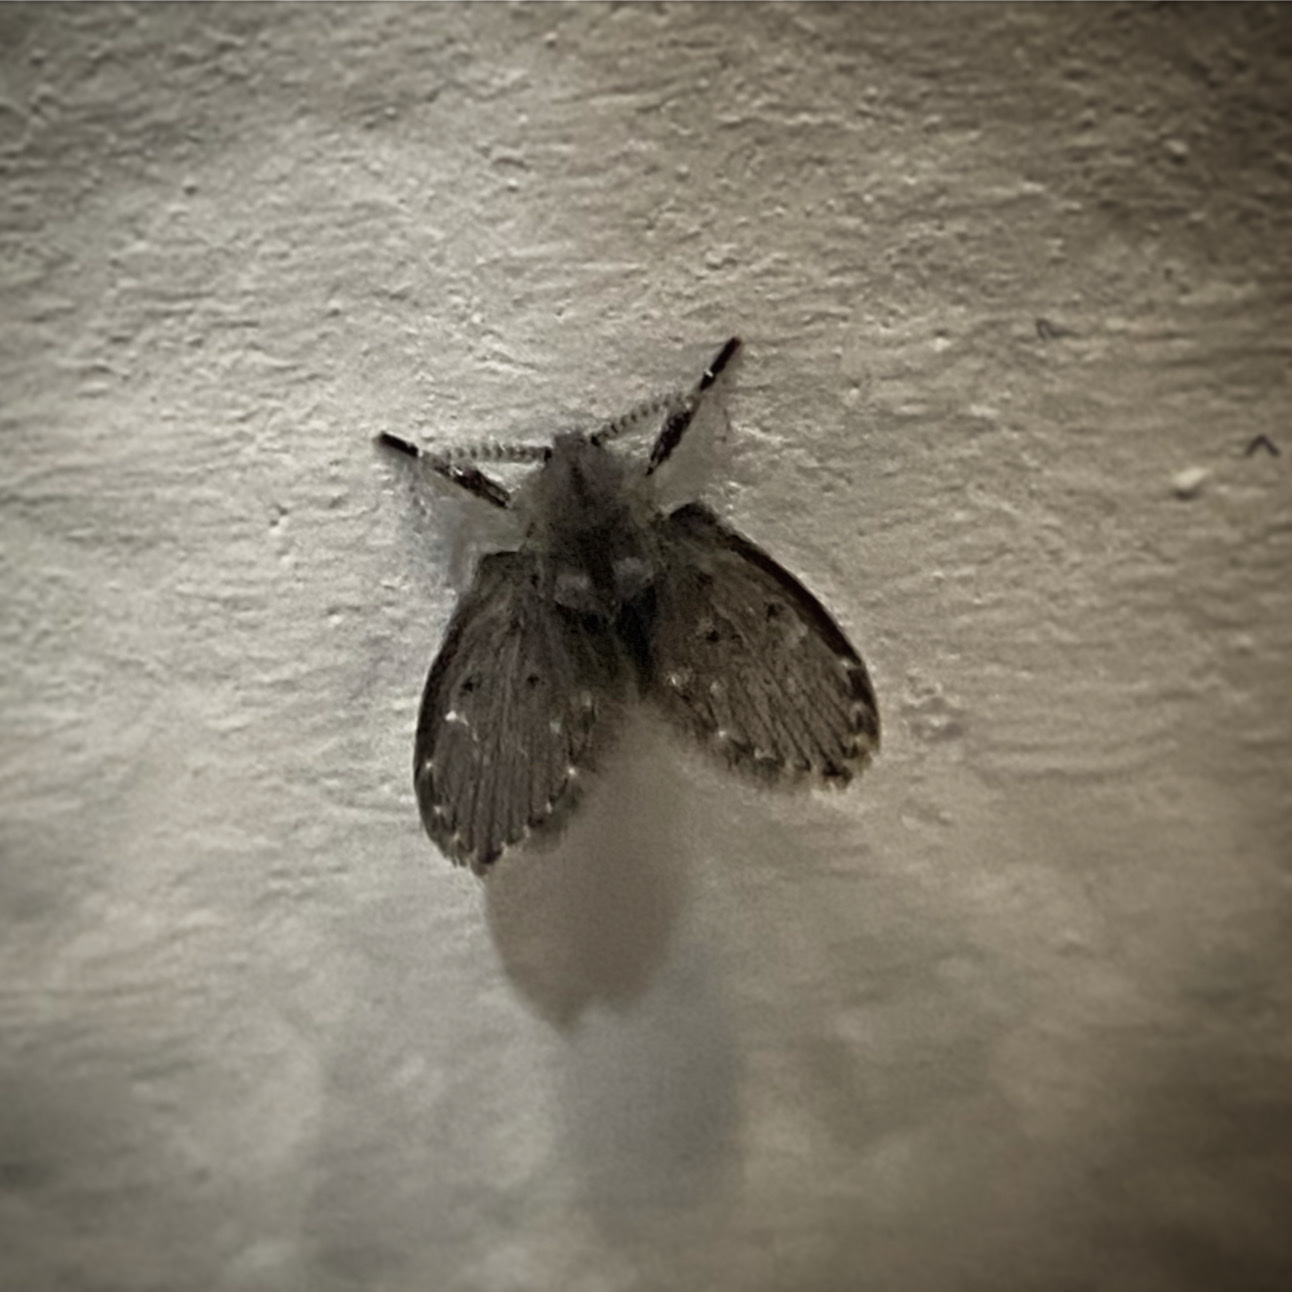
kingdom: Animalia
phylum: Arthropoda
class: Insecta
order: Diptera
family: Psychodidae
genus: Clogmia
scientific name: Clogmia albipunctatus
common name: White-spotted moth fly
